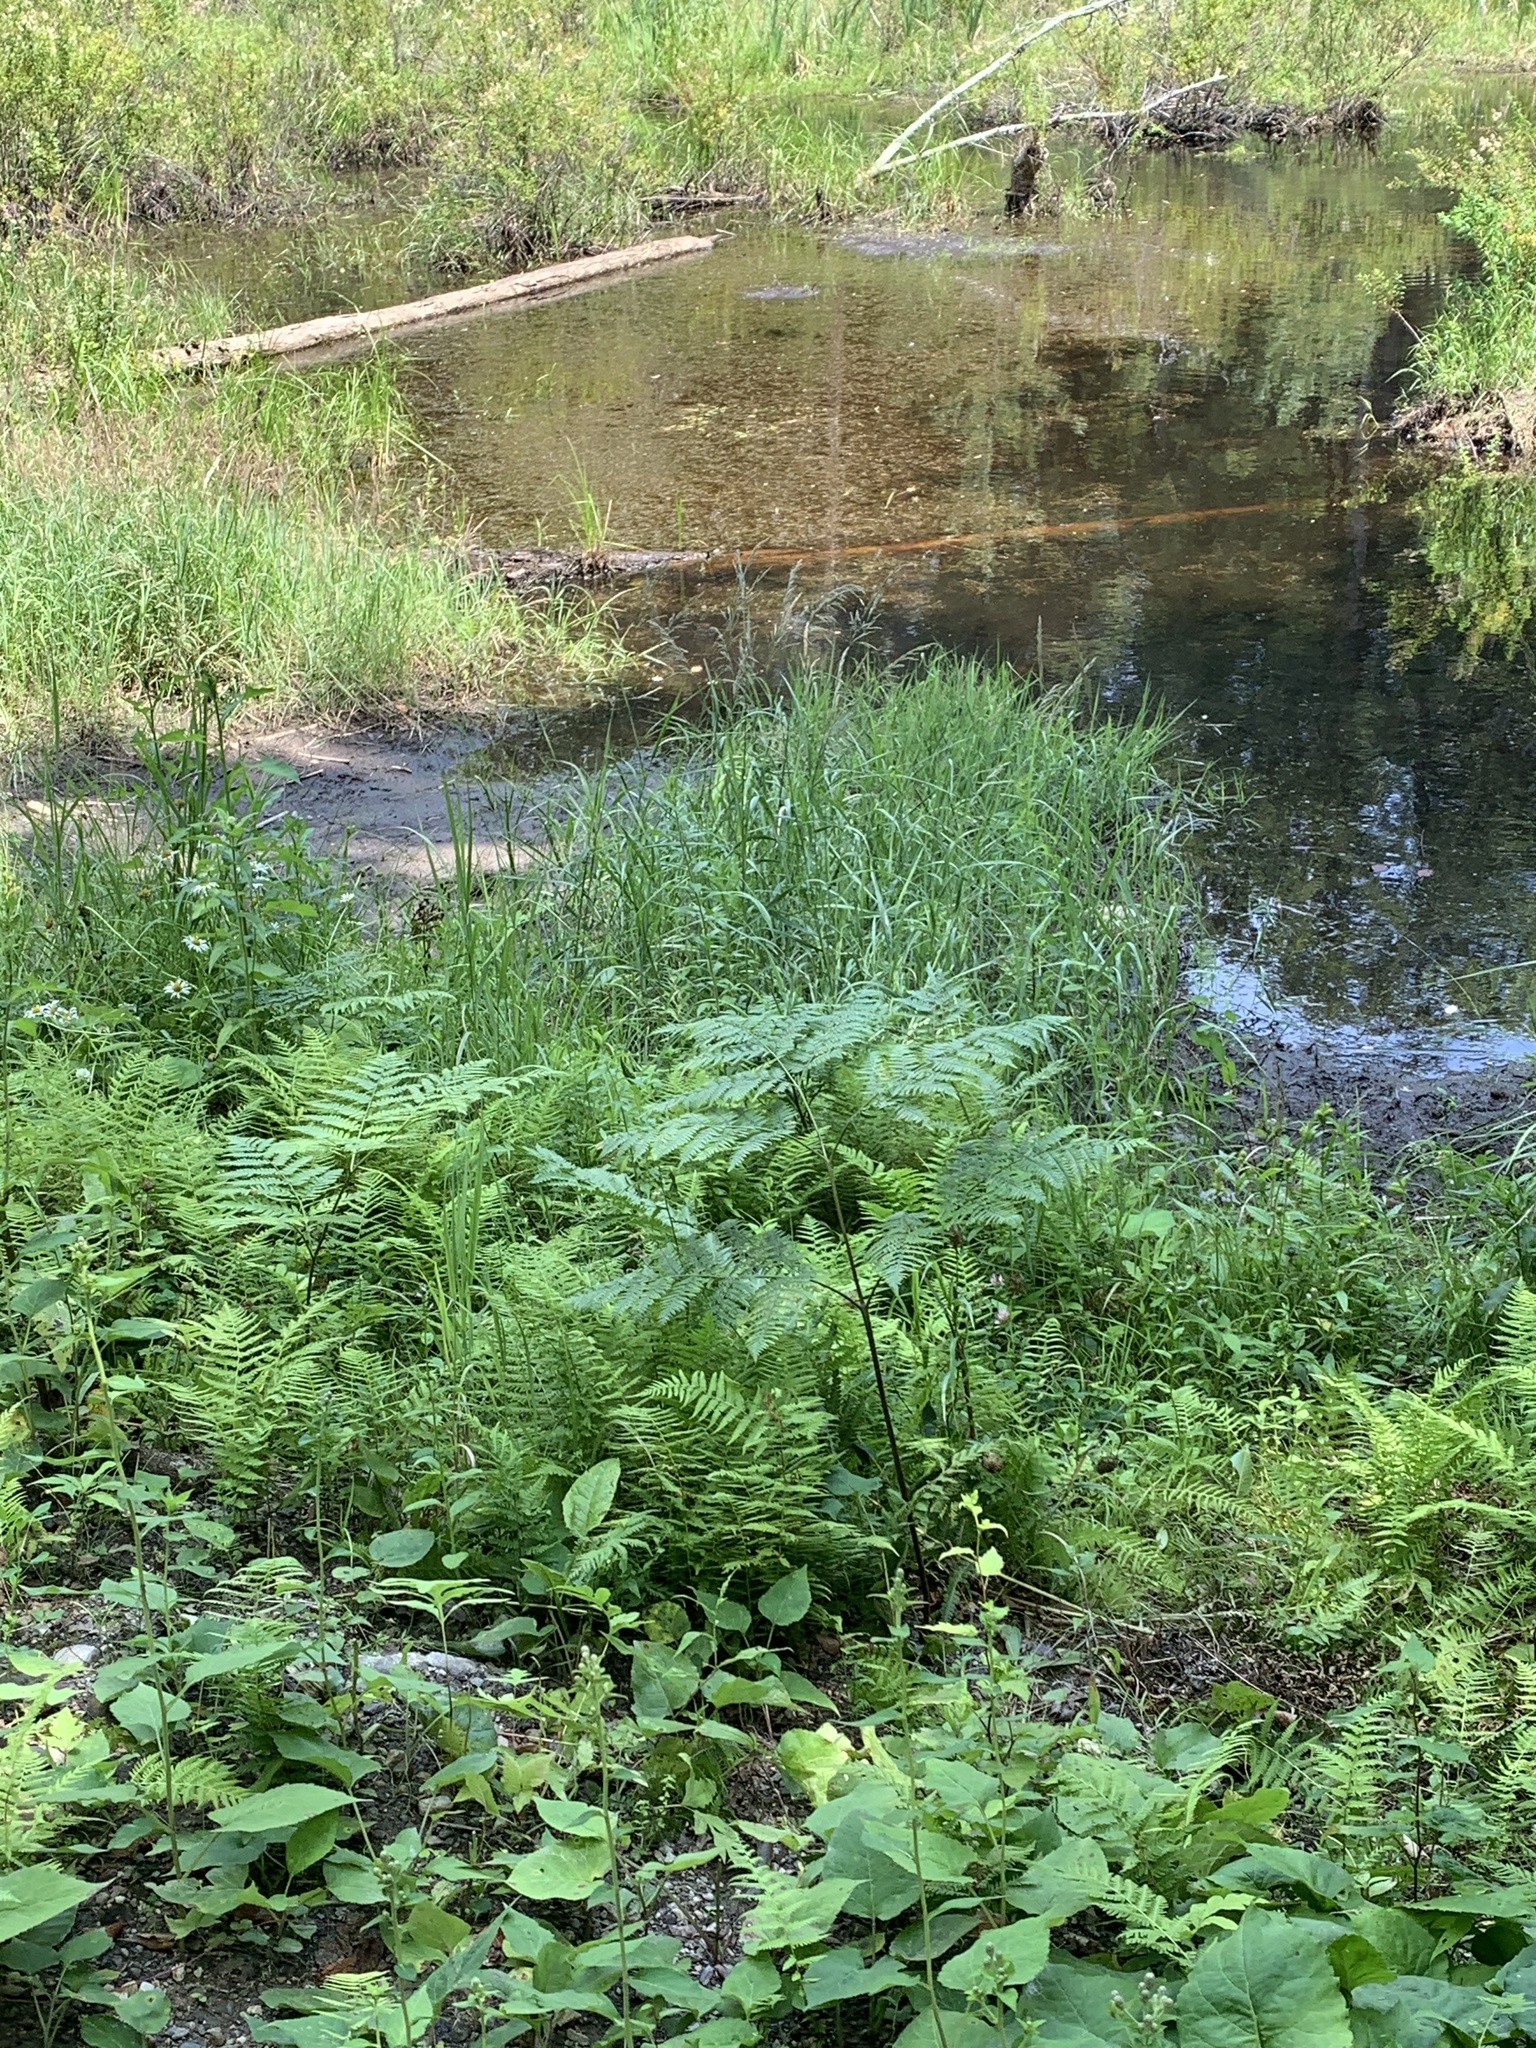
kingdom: Plantae
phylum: Tracheophyta
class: Polypodiopsida
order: Polypodiales
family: Dennstaedtiaceae
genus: Pteridium
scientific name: Pteridium aquilinum
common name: Bracken
